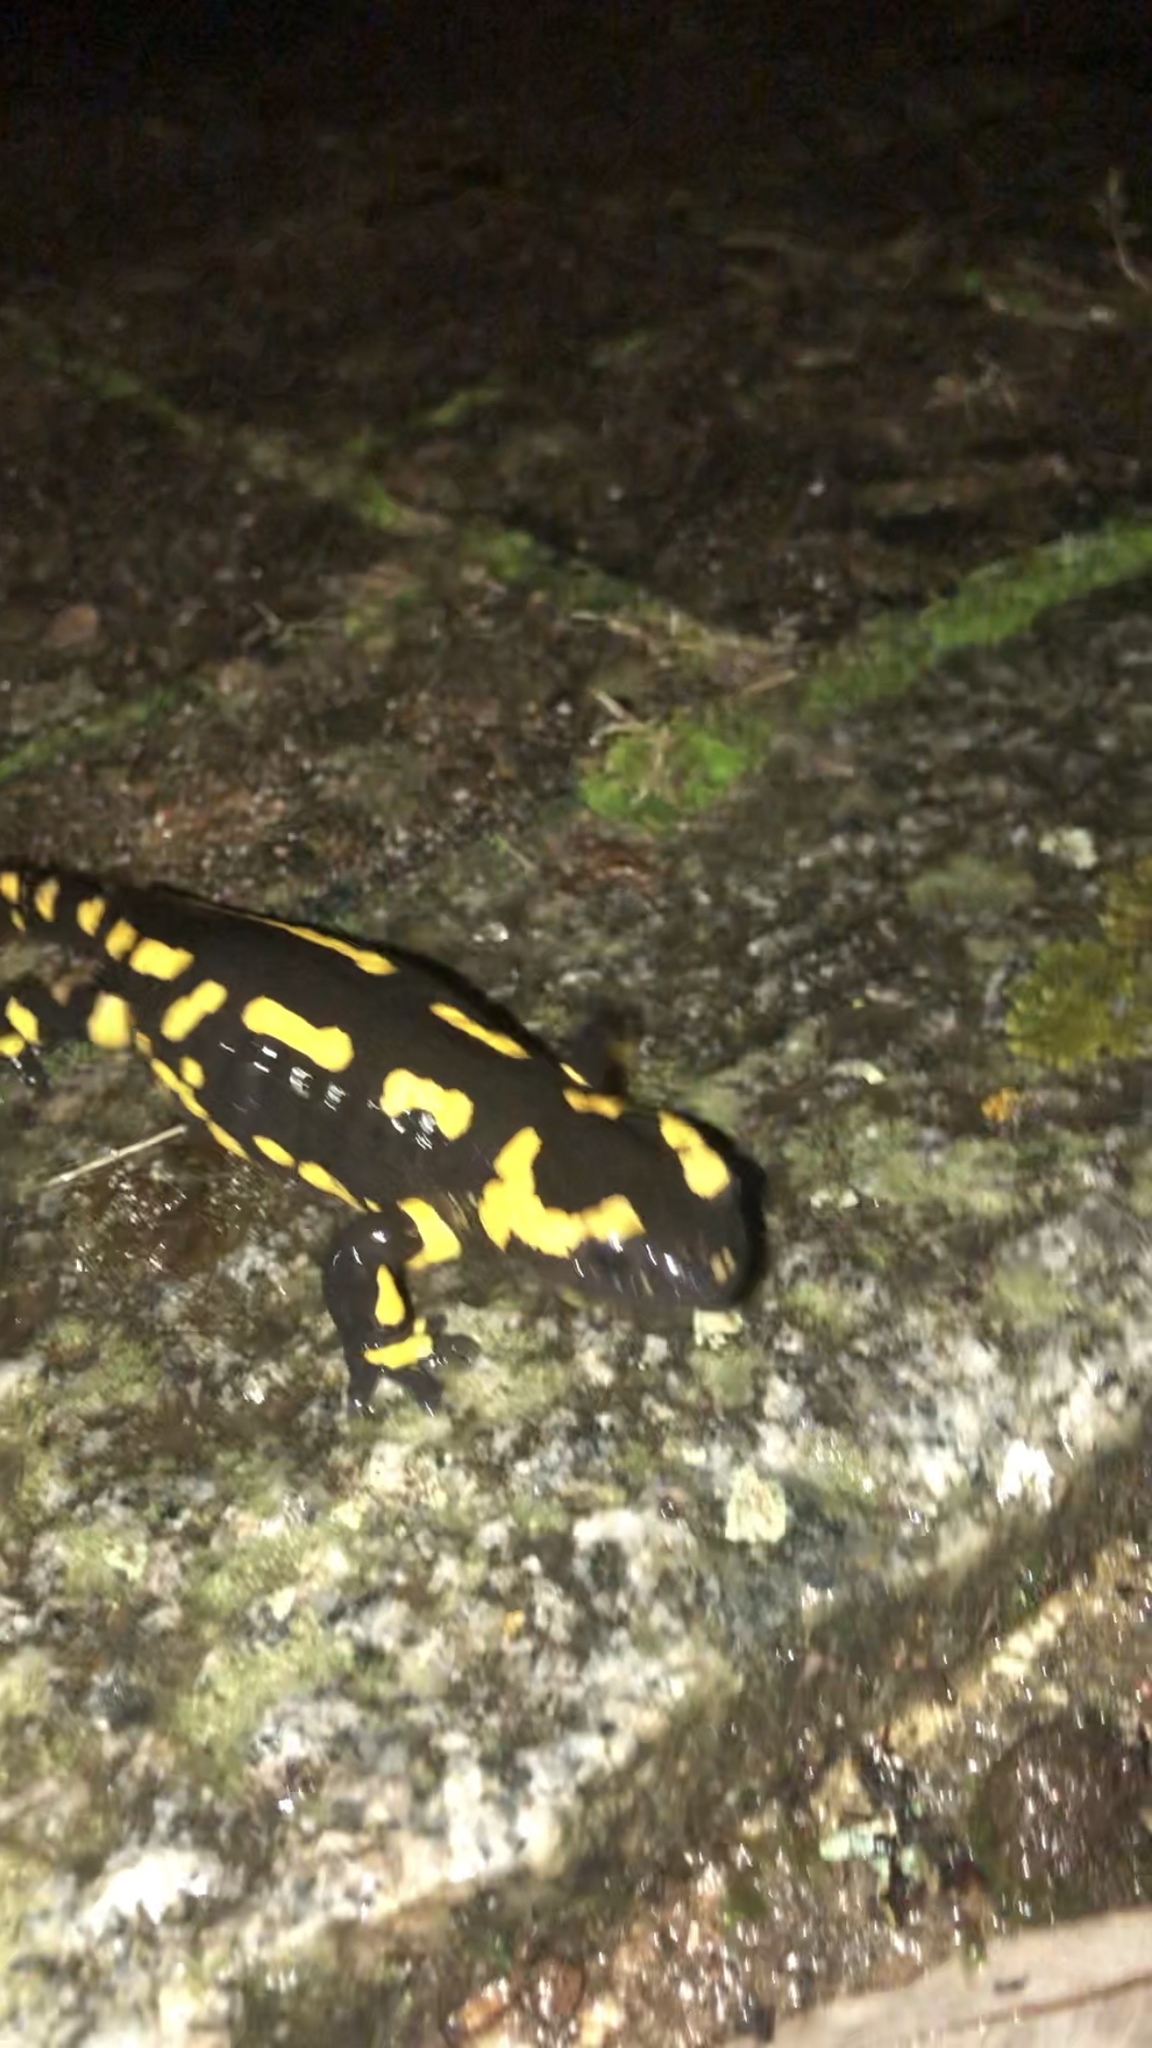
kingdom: Animalia
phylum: Chordata
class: Amphibia
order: Caudata
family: Salamandridae
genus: Salamandra
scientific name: Salamandra salamandra
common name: Fire salamander
